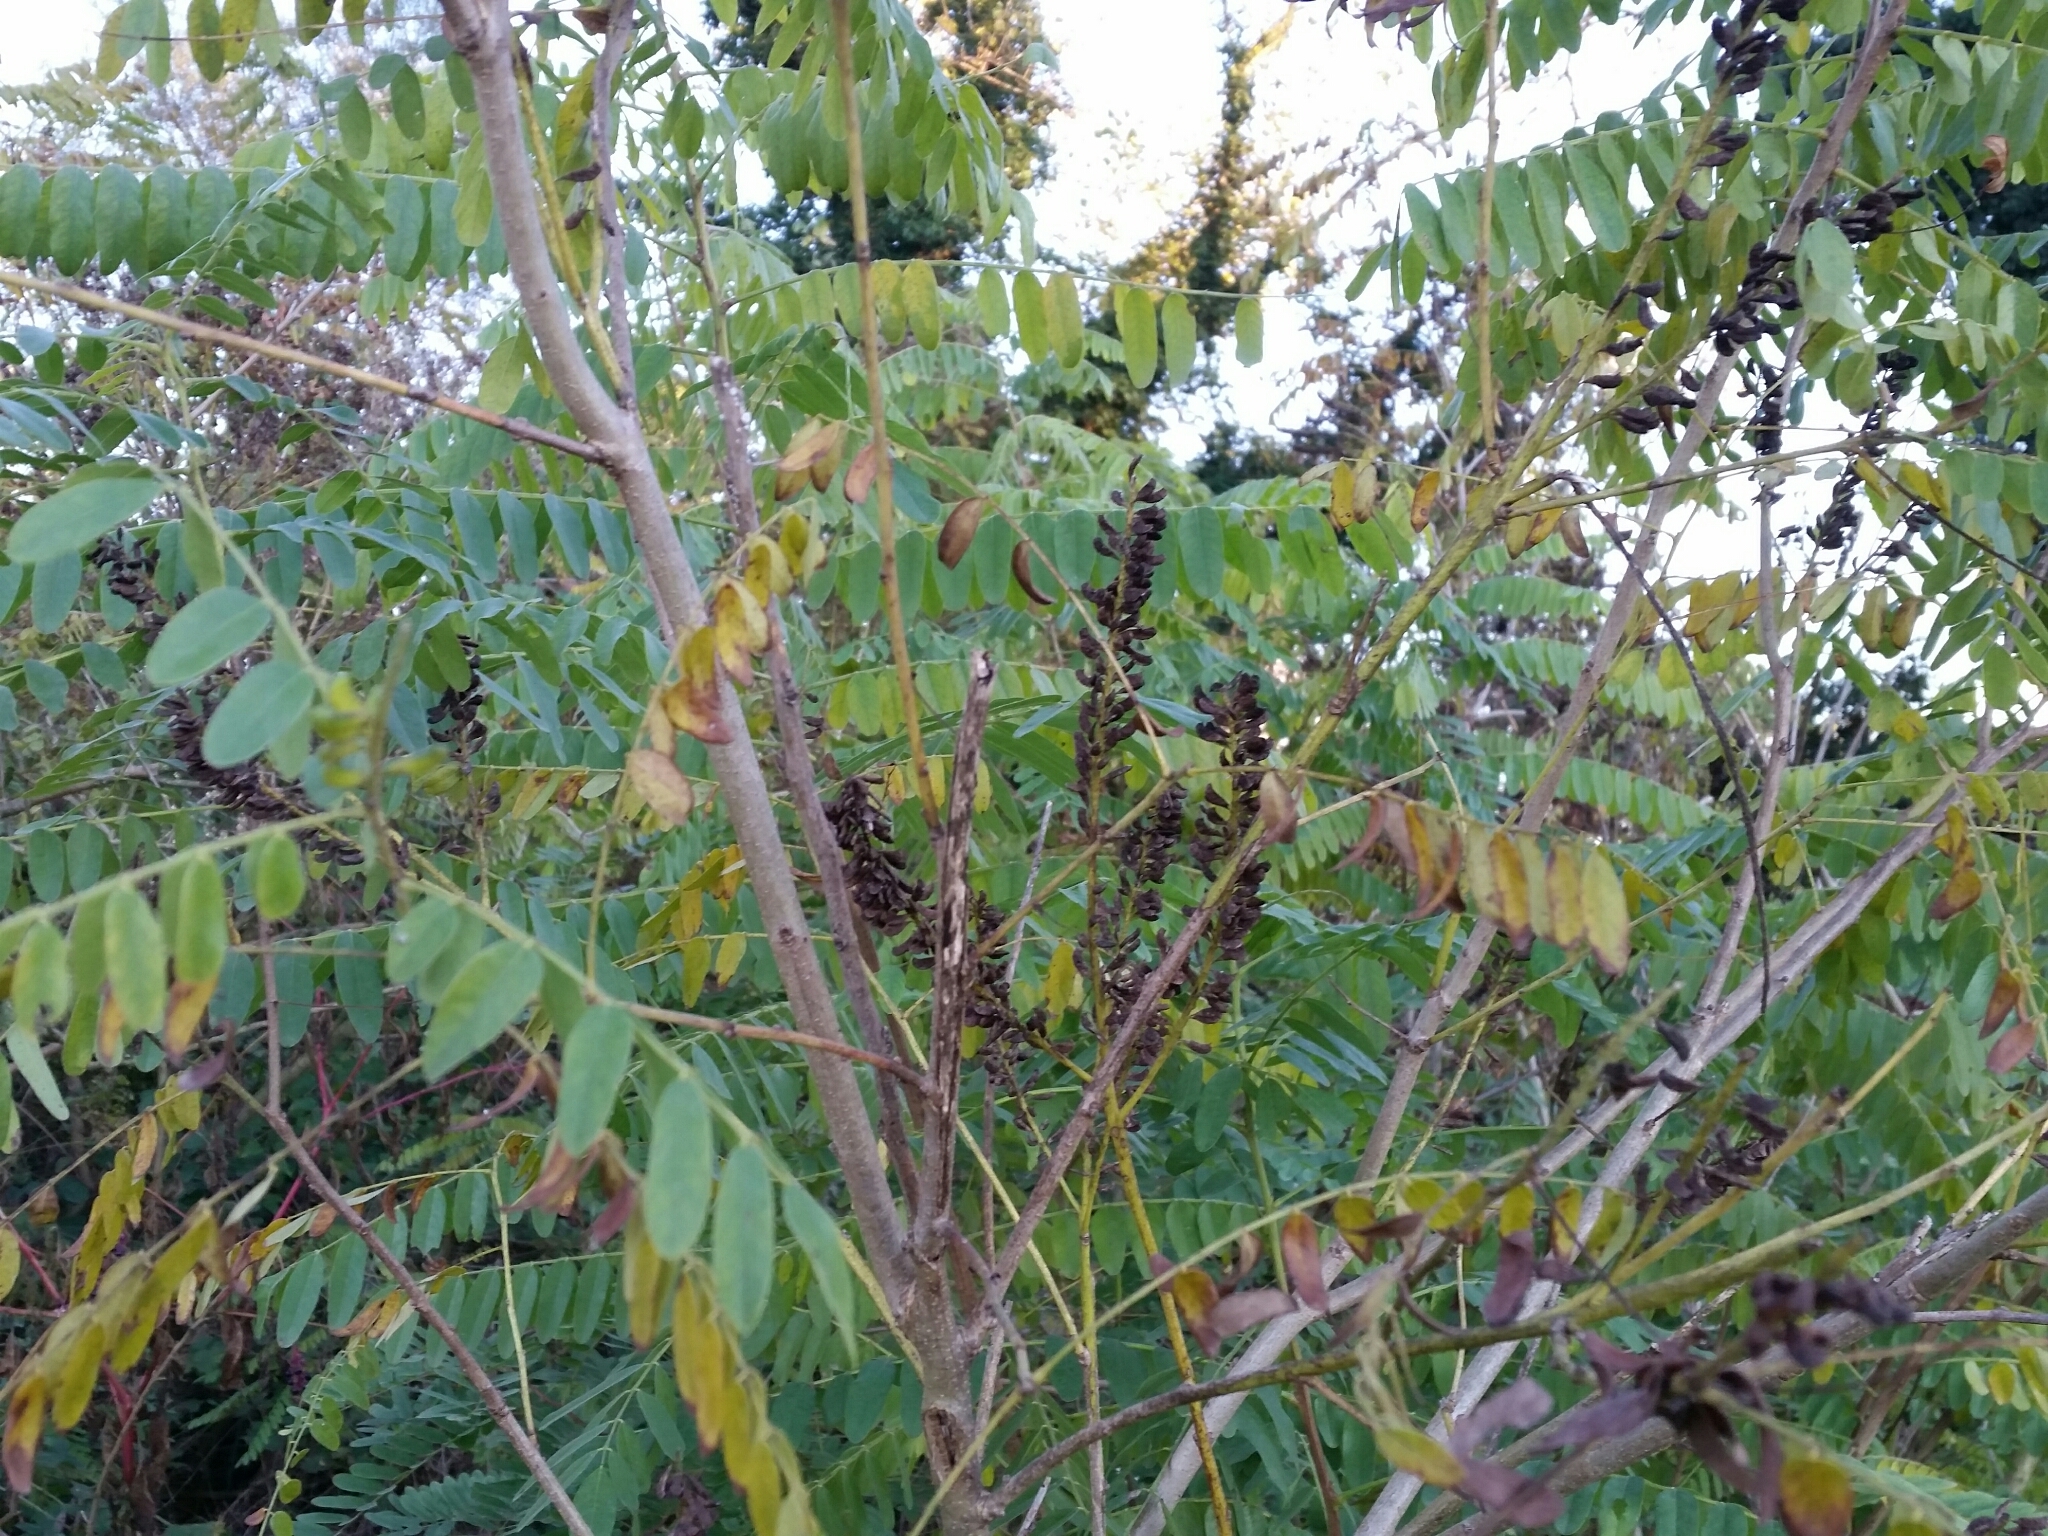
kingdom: Plantae
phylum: Tracheophyta
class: Magnoliopsida
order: Fabales
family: Fabaceae
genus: Amorpha
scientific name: Amorpha fruticosa
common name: False indigo
